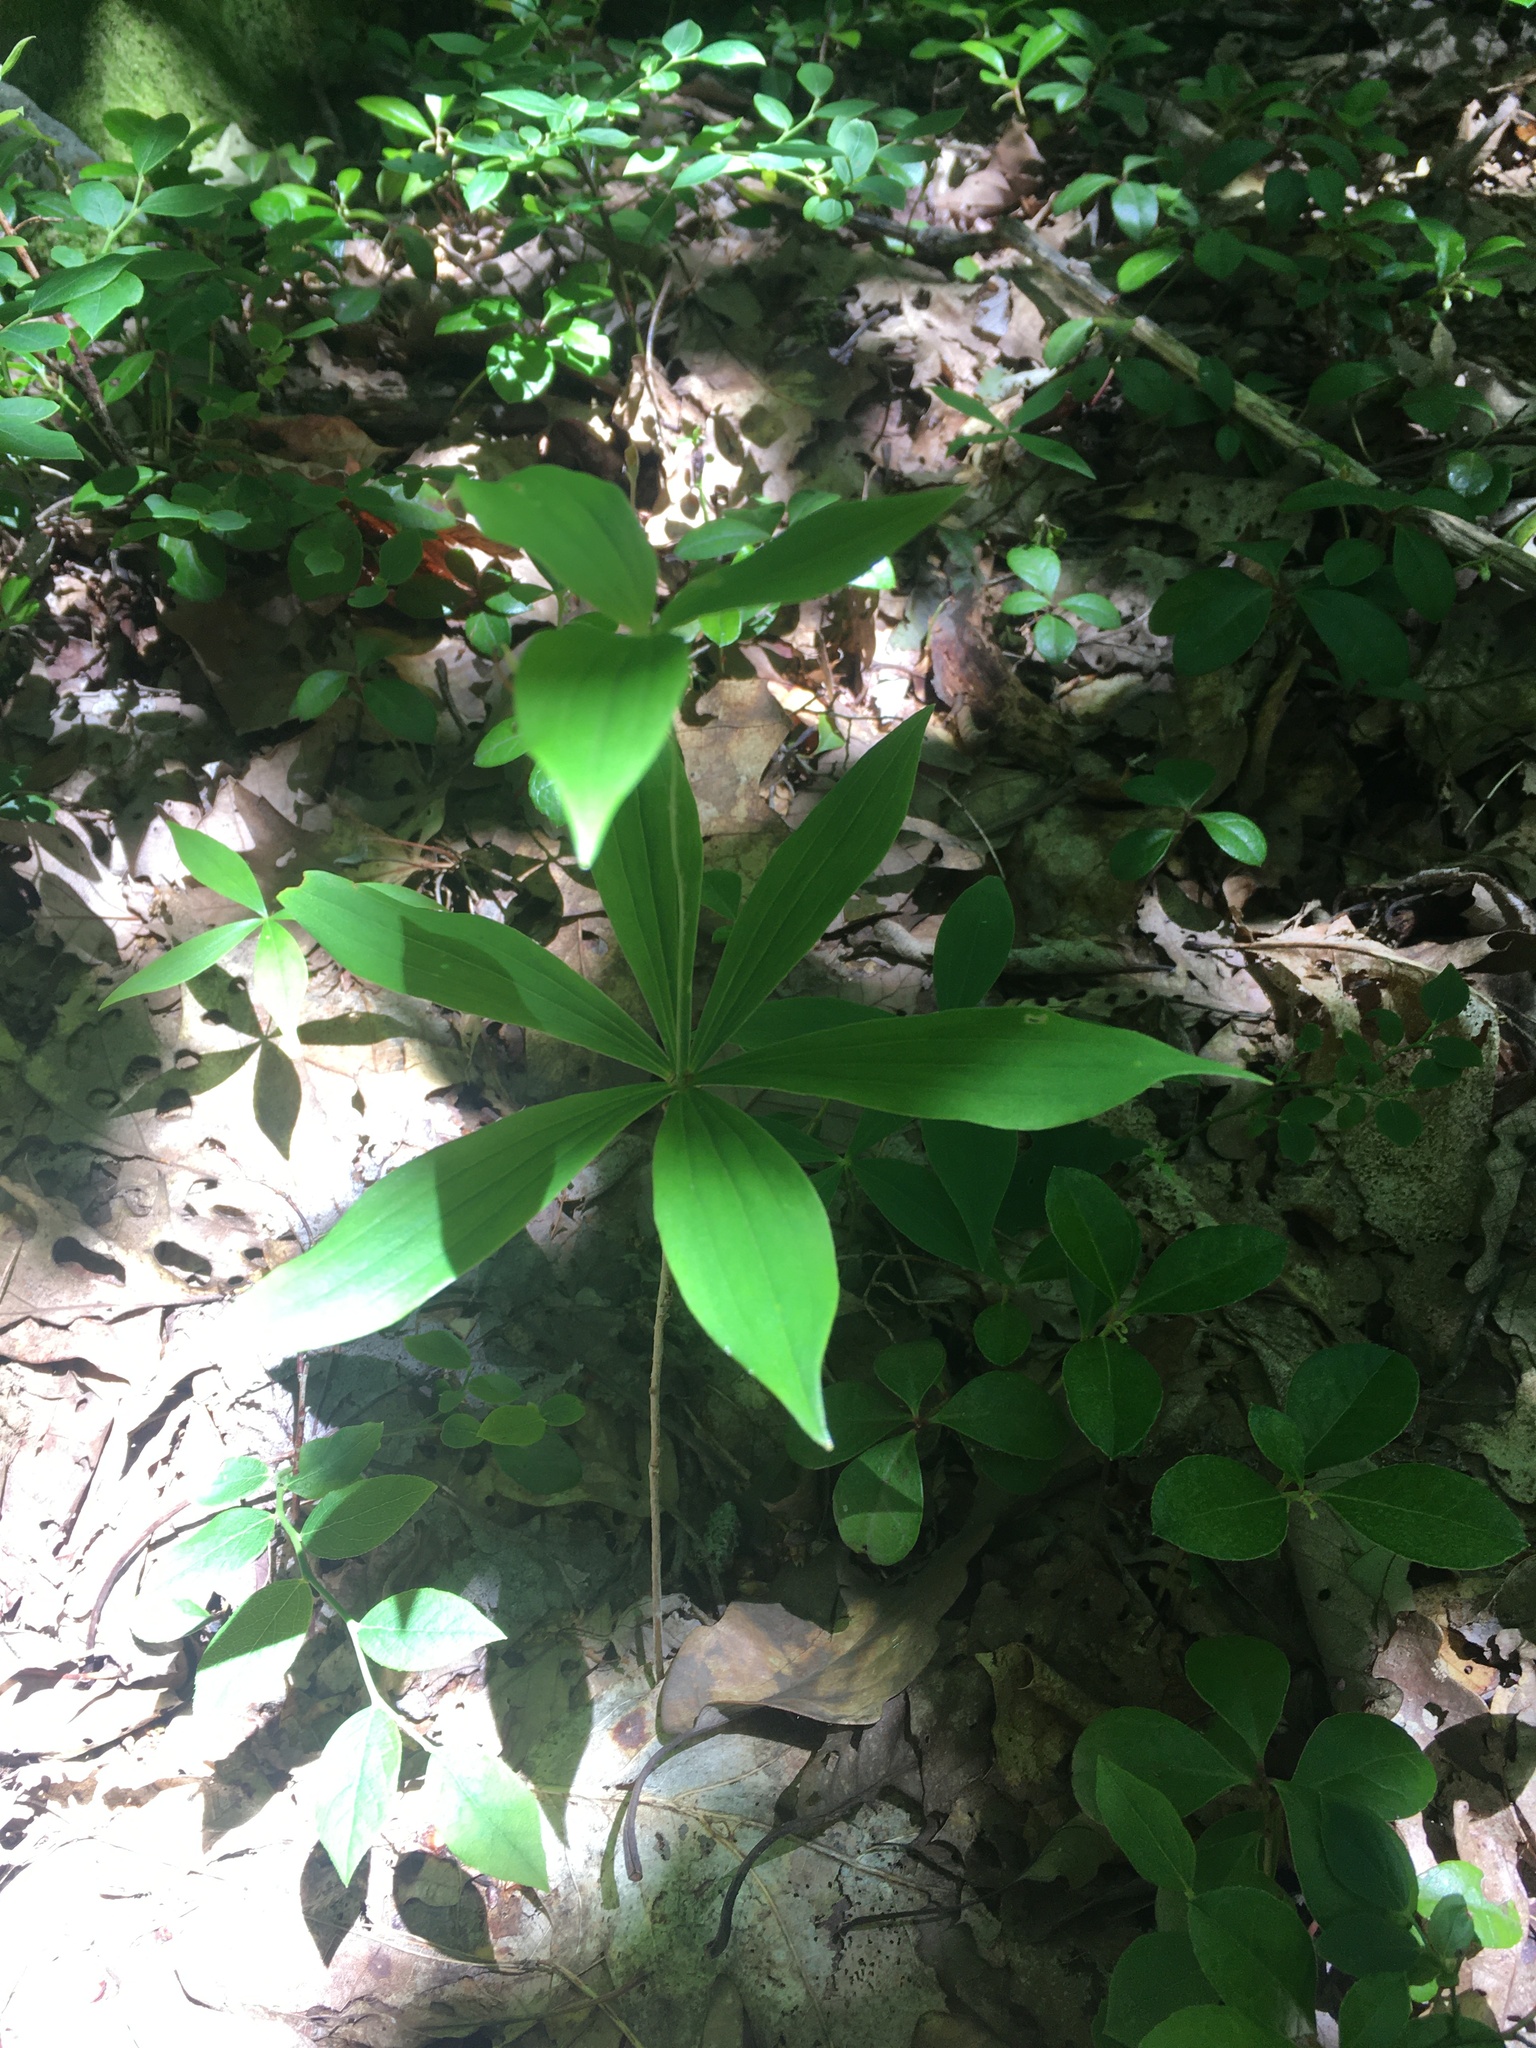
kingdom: Plantae
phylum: Tracheophyta
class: Liliopsida
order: Liliales
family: Liliaceae
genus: Medeola
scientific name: Medeola virginiana
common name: Indian cucumber-root
